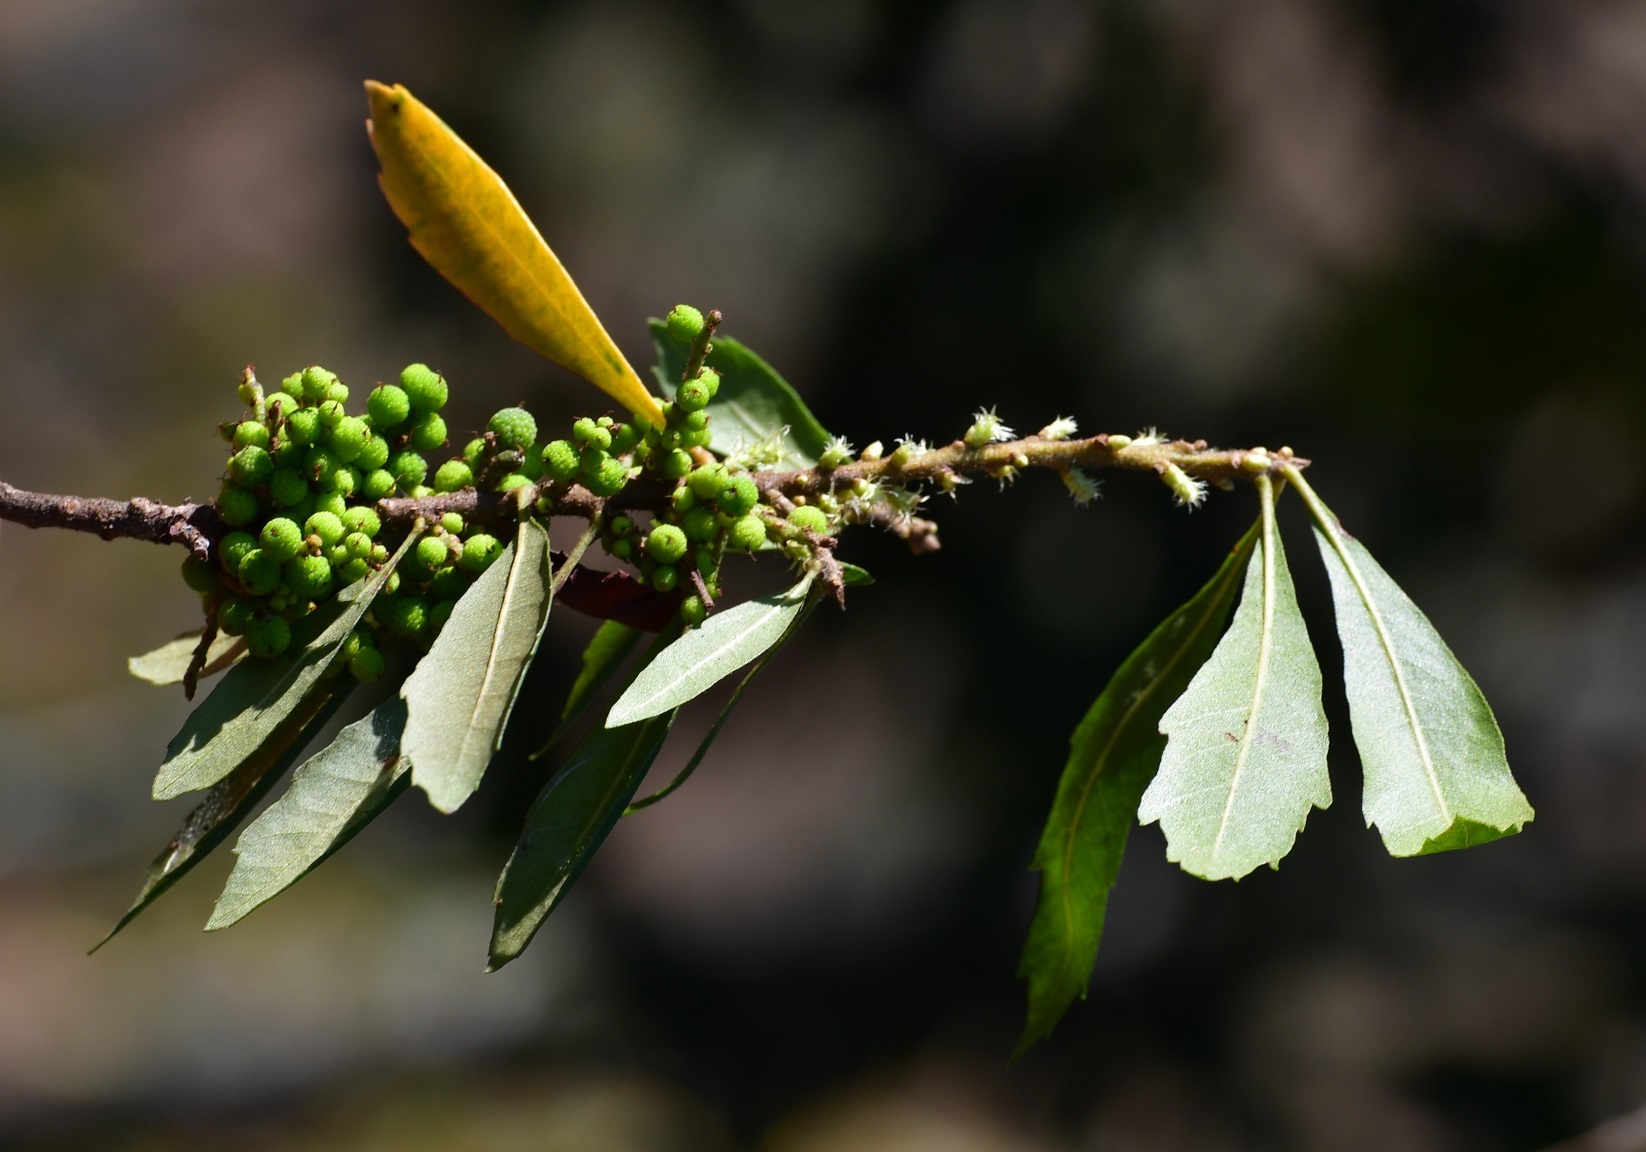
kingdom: Plantae
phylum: Tracheophyta
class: Magnoliopsida
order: Fagales
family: Myricaceae
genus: Morella
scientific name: Morella cerifera
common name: Wax myrtle
